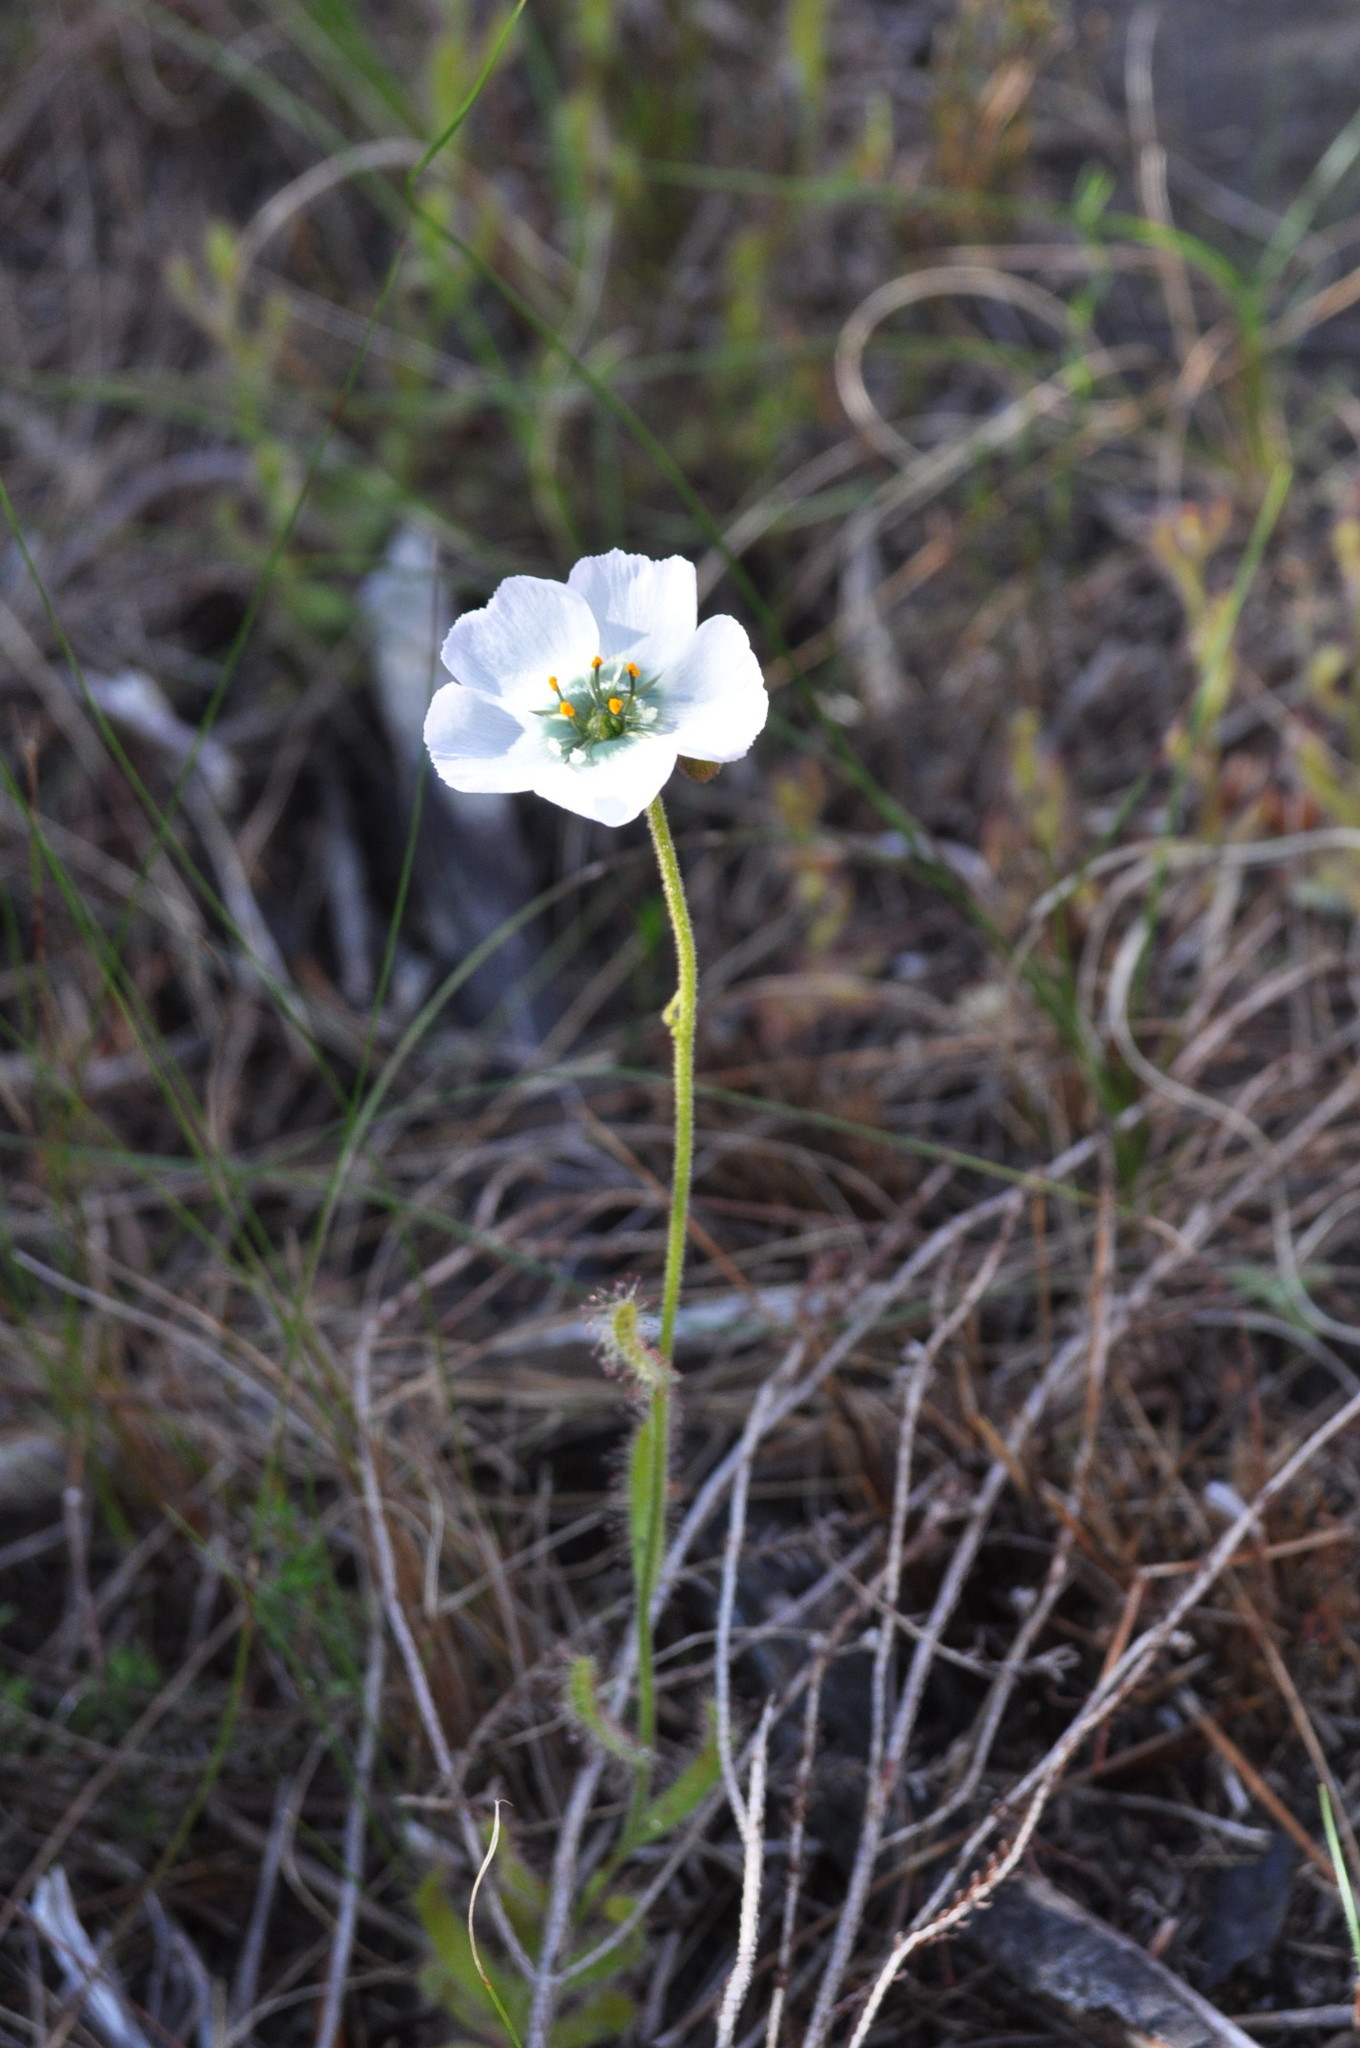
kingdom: Plantae
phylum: Tracheophyta
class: Magnoliopsida
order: Caryophyllales
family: Droseraceae
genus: Drosera
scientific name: Drosera cistiflora
